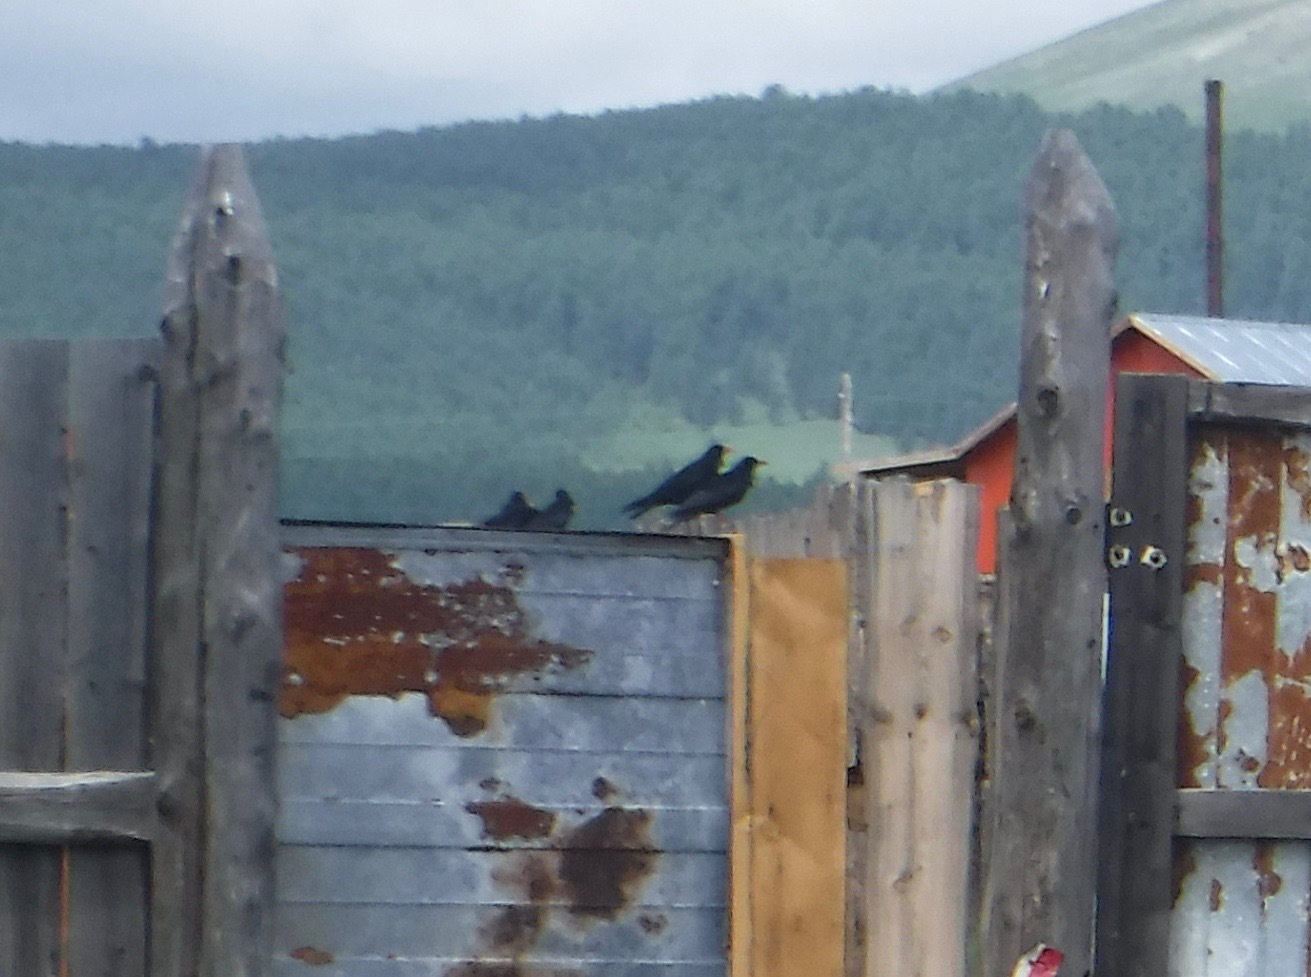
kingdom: Animalia
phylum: Chordata
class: Aves
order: Passeriformes
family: Corvidae
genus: Pyrrhocorax
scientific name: Pyrrhocorax pyrrhocorax
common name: Red-billed chough
